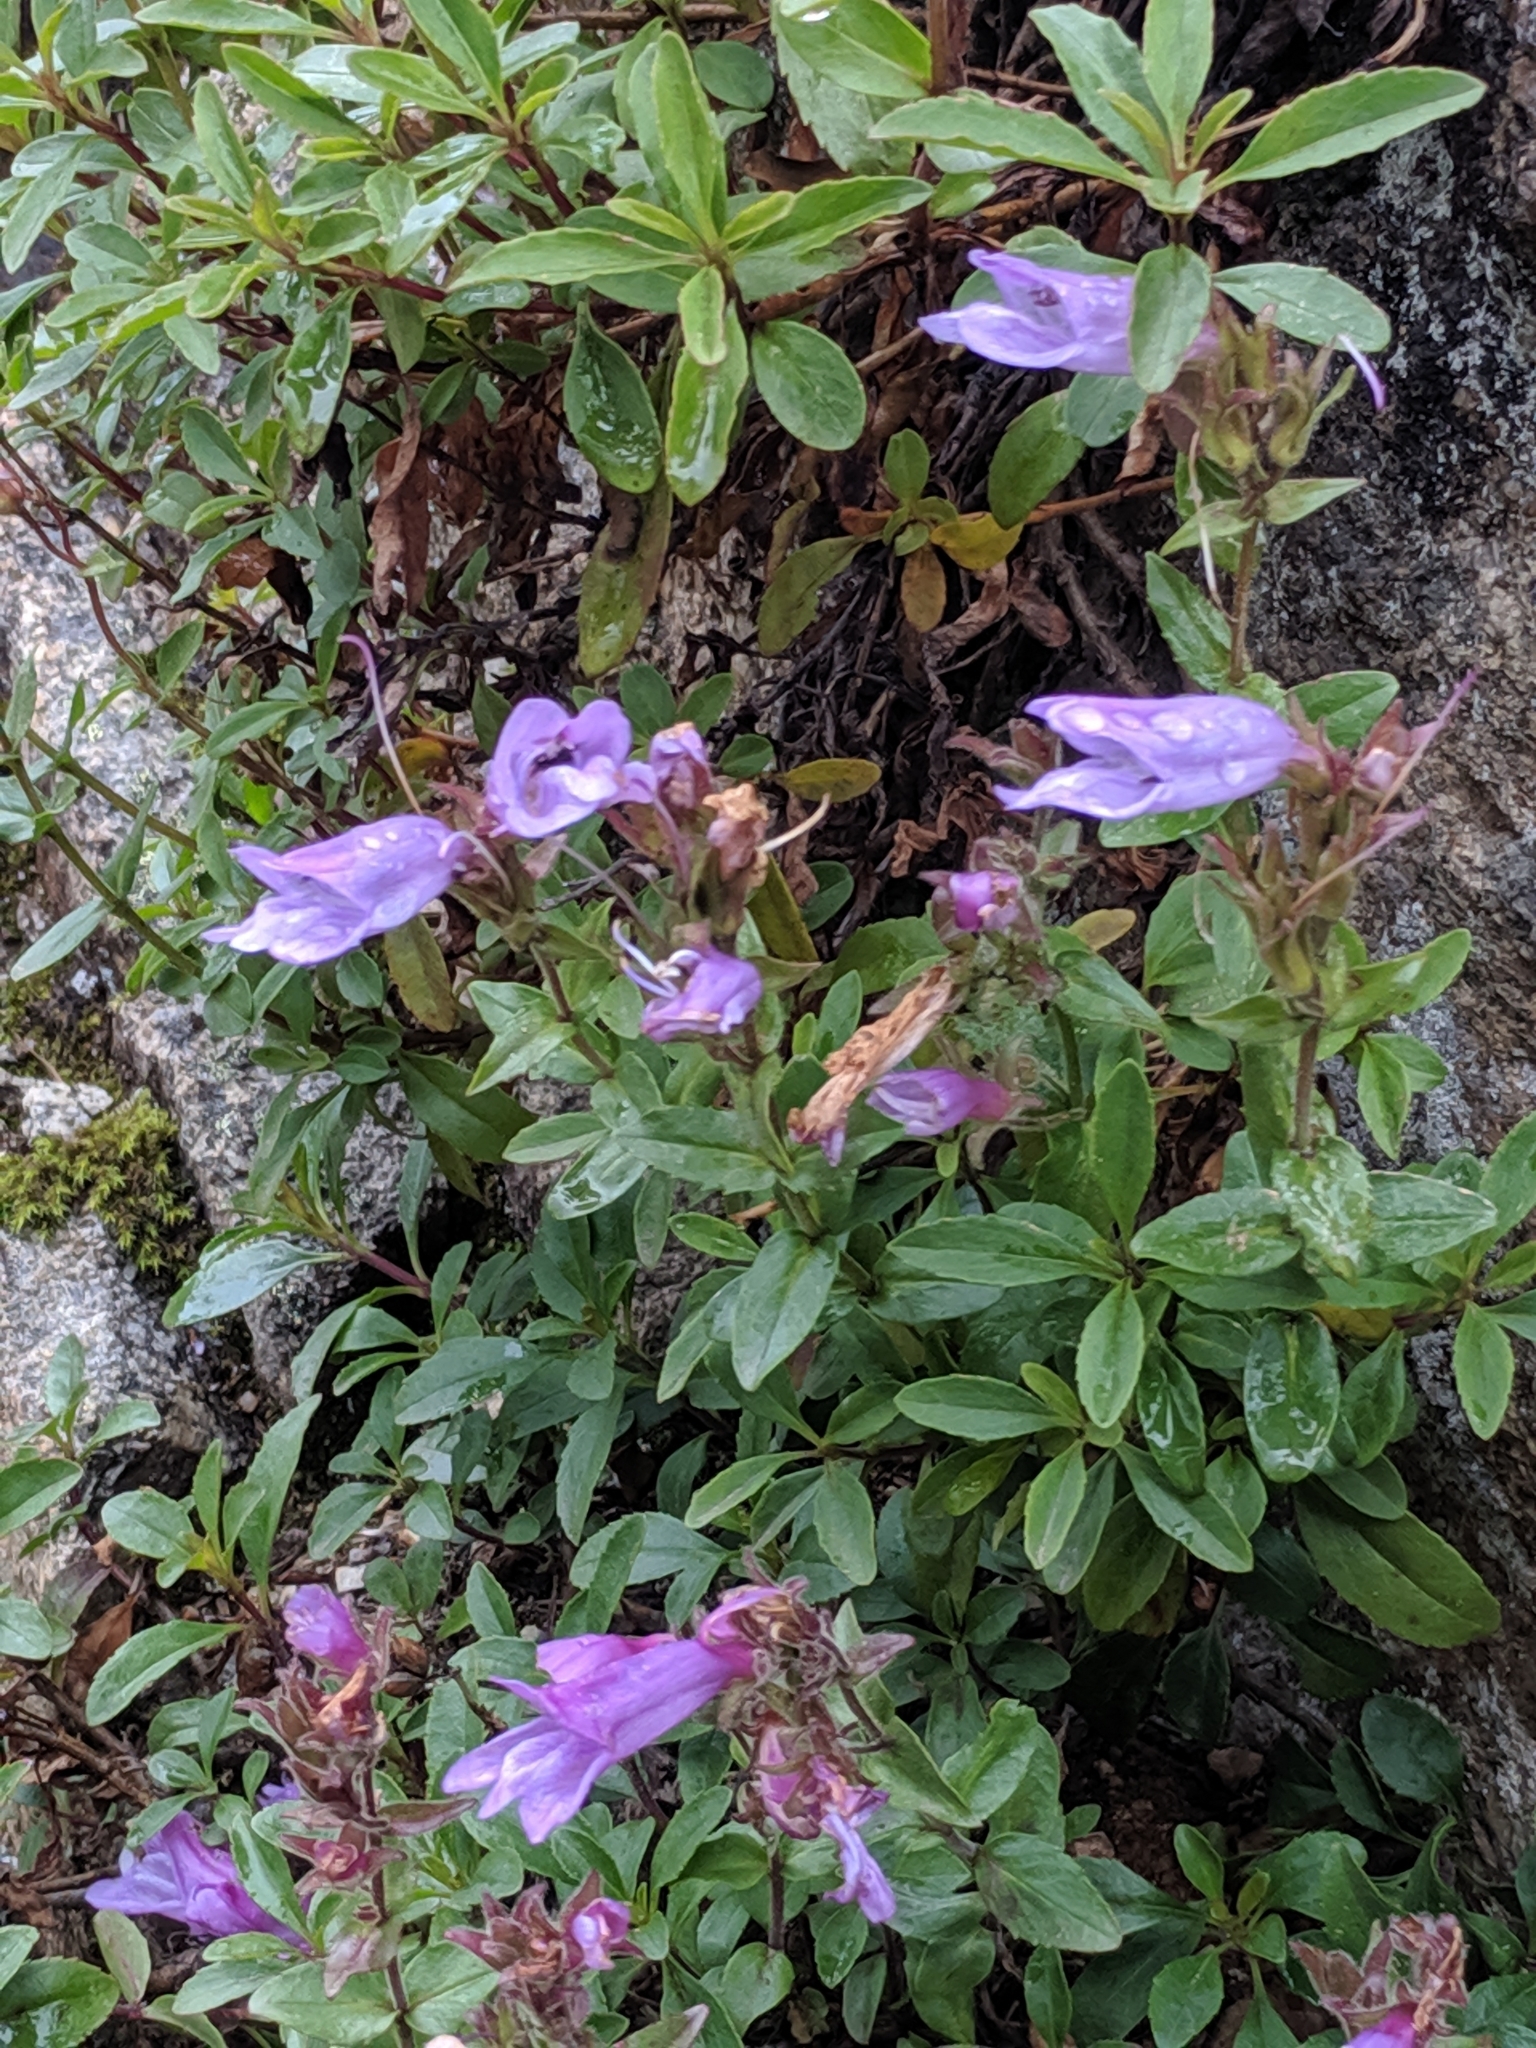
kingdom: Plantae
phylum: Tracheophyta
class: Magnoliopsida
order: Lamiales
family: Plantaginaceae
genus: Penstemon
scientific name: Penstemon ellipticus
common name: Alpine beardtongue
